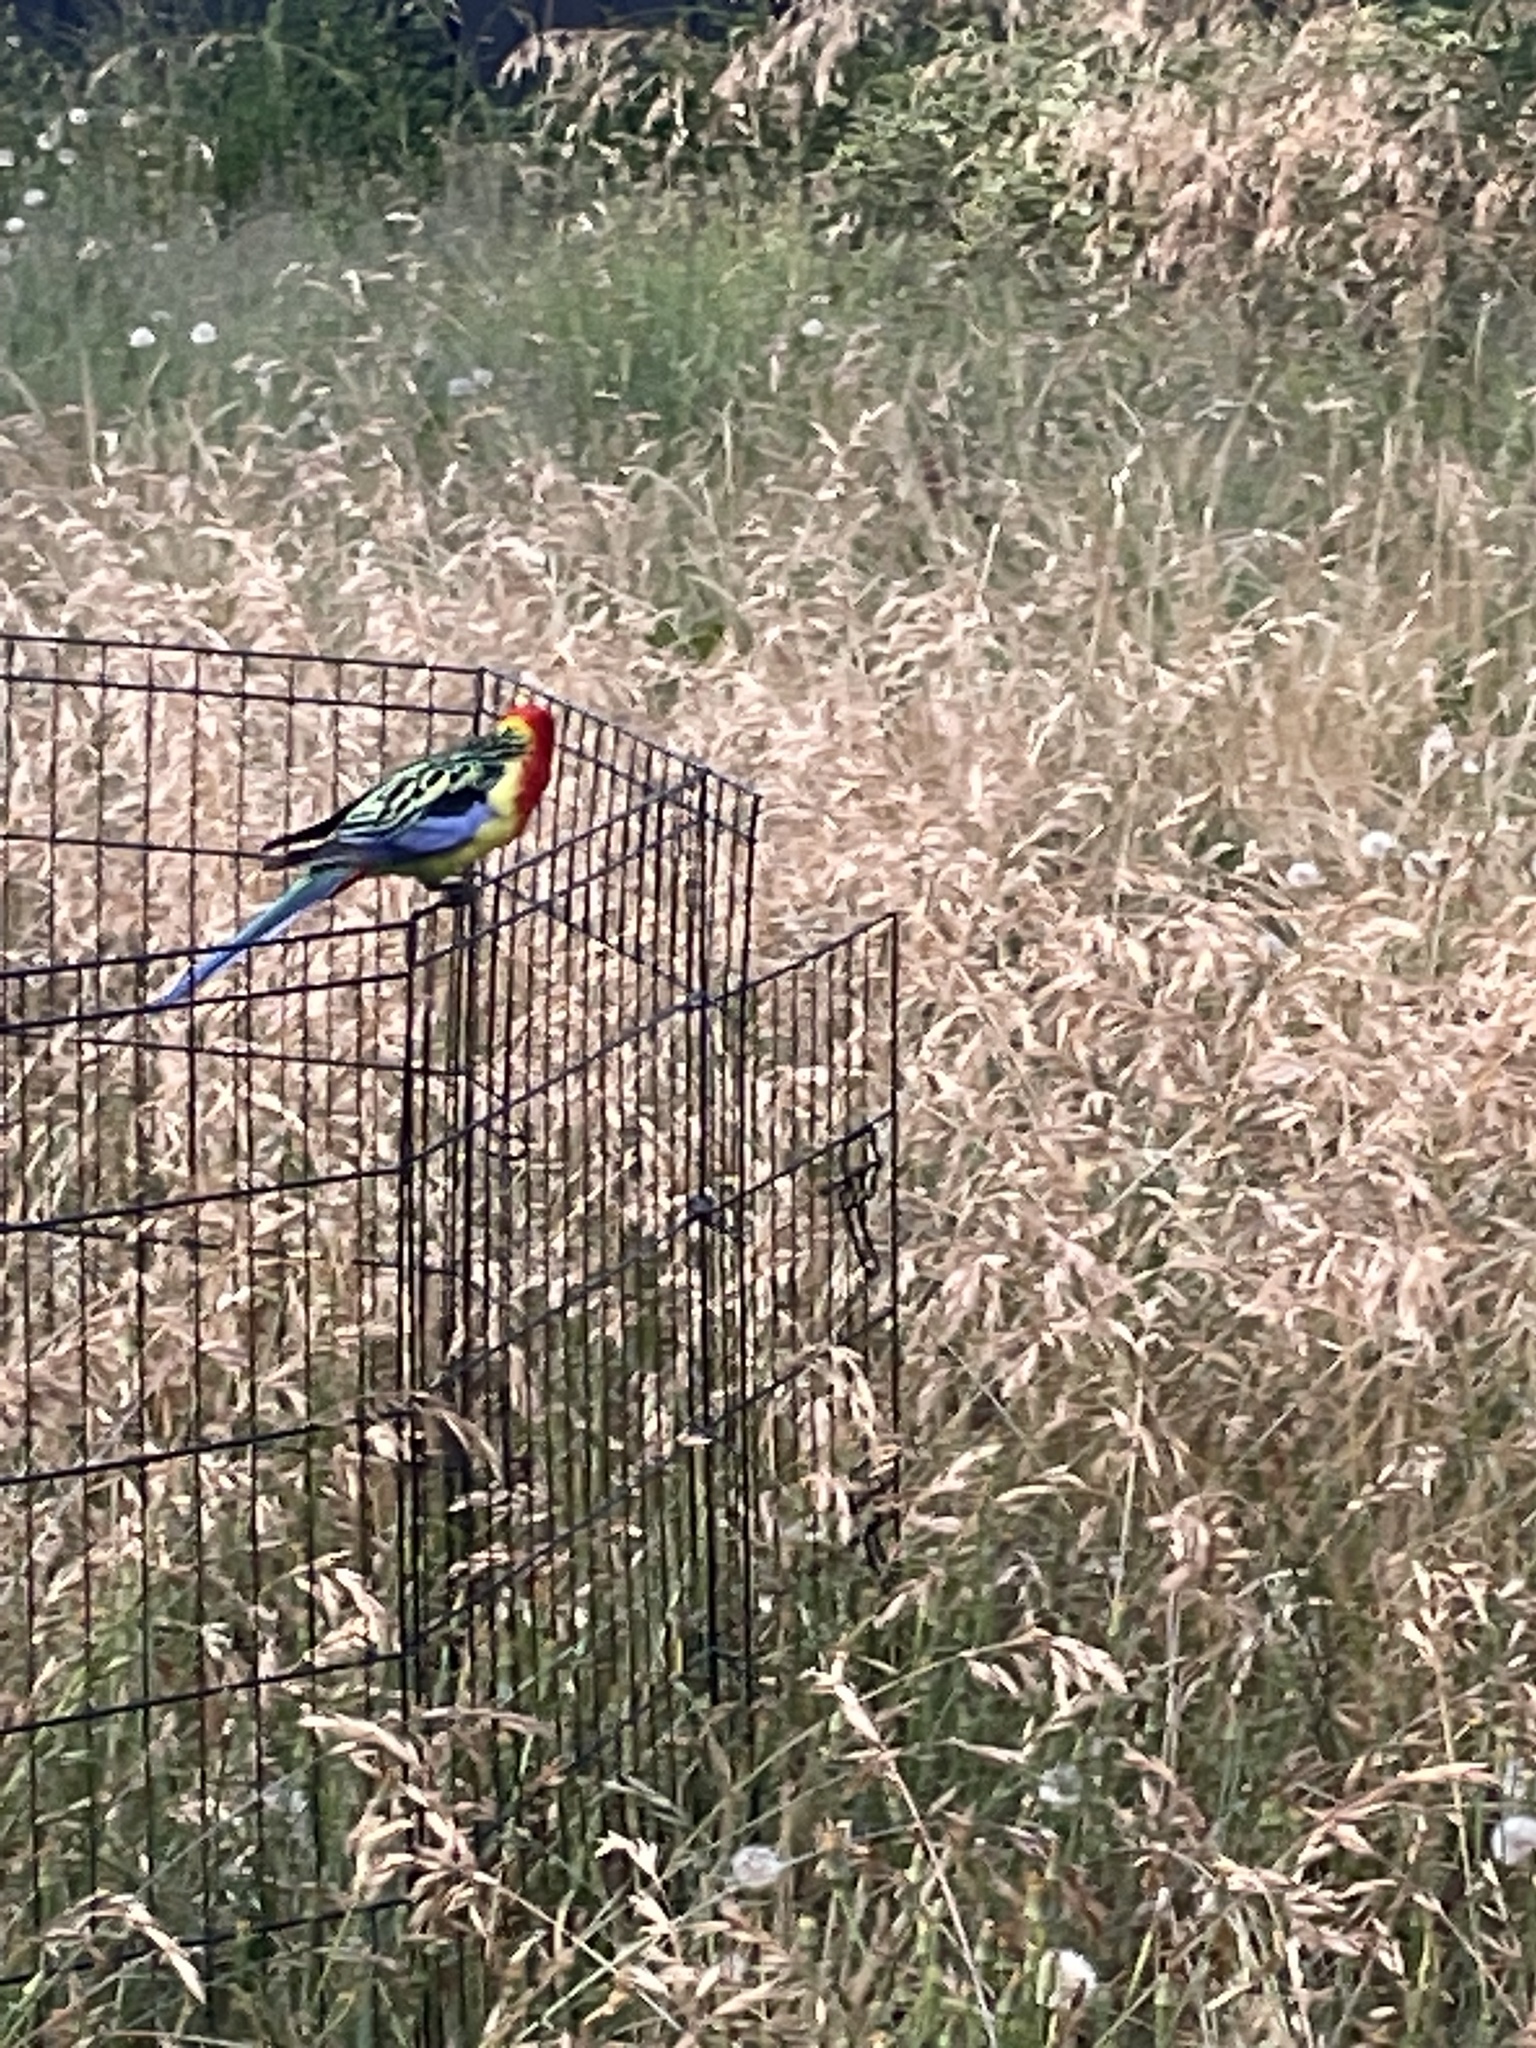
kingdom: Animalia
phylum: Chordata
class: Aves
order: Psittaciformes
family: Psittacidae
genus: Platycercus
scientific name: Platycercus eximius
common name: Eastern rosella
